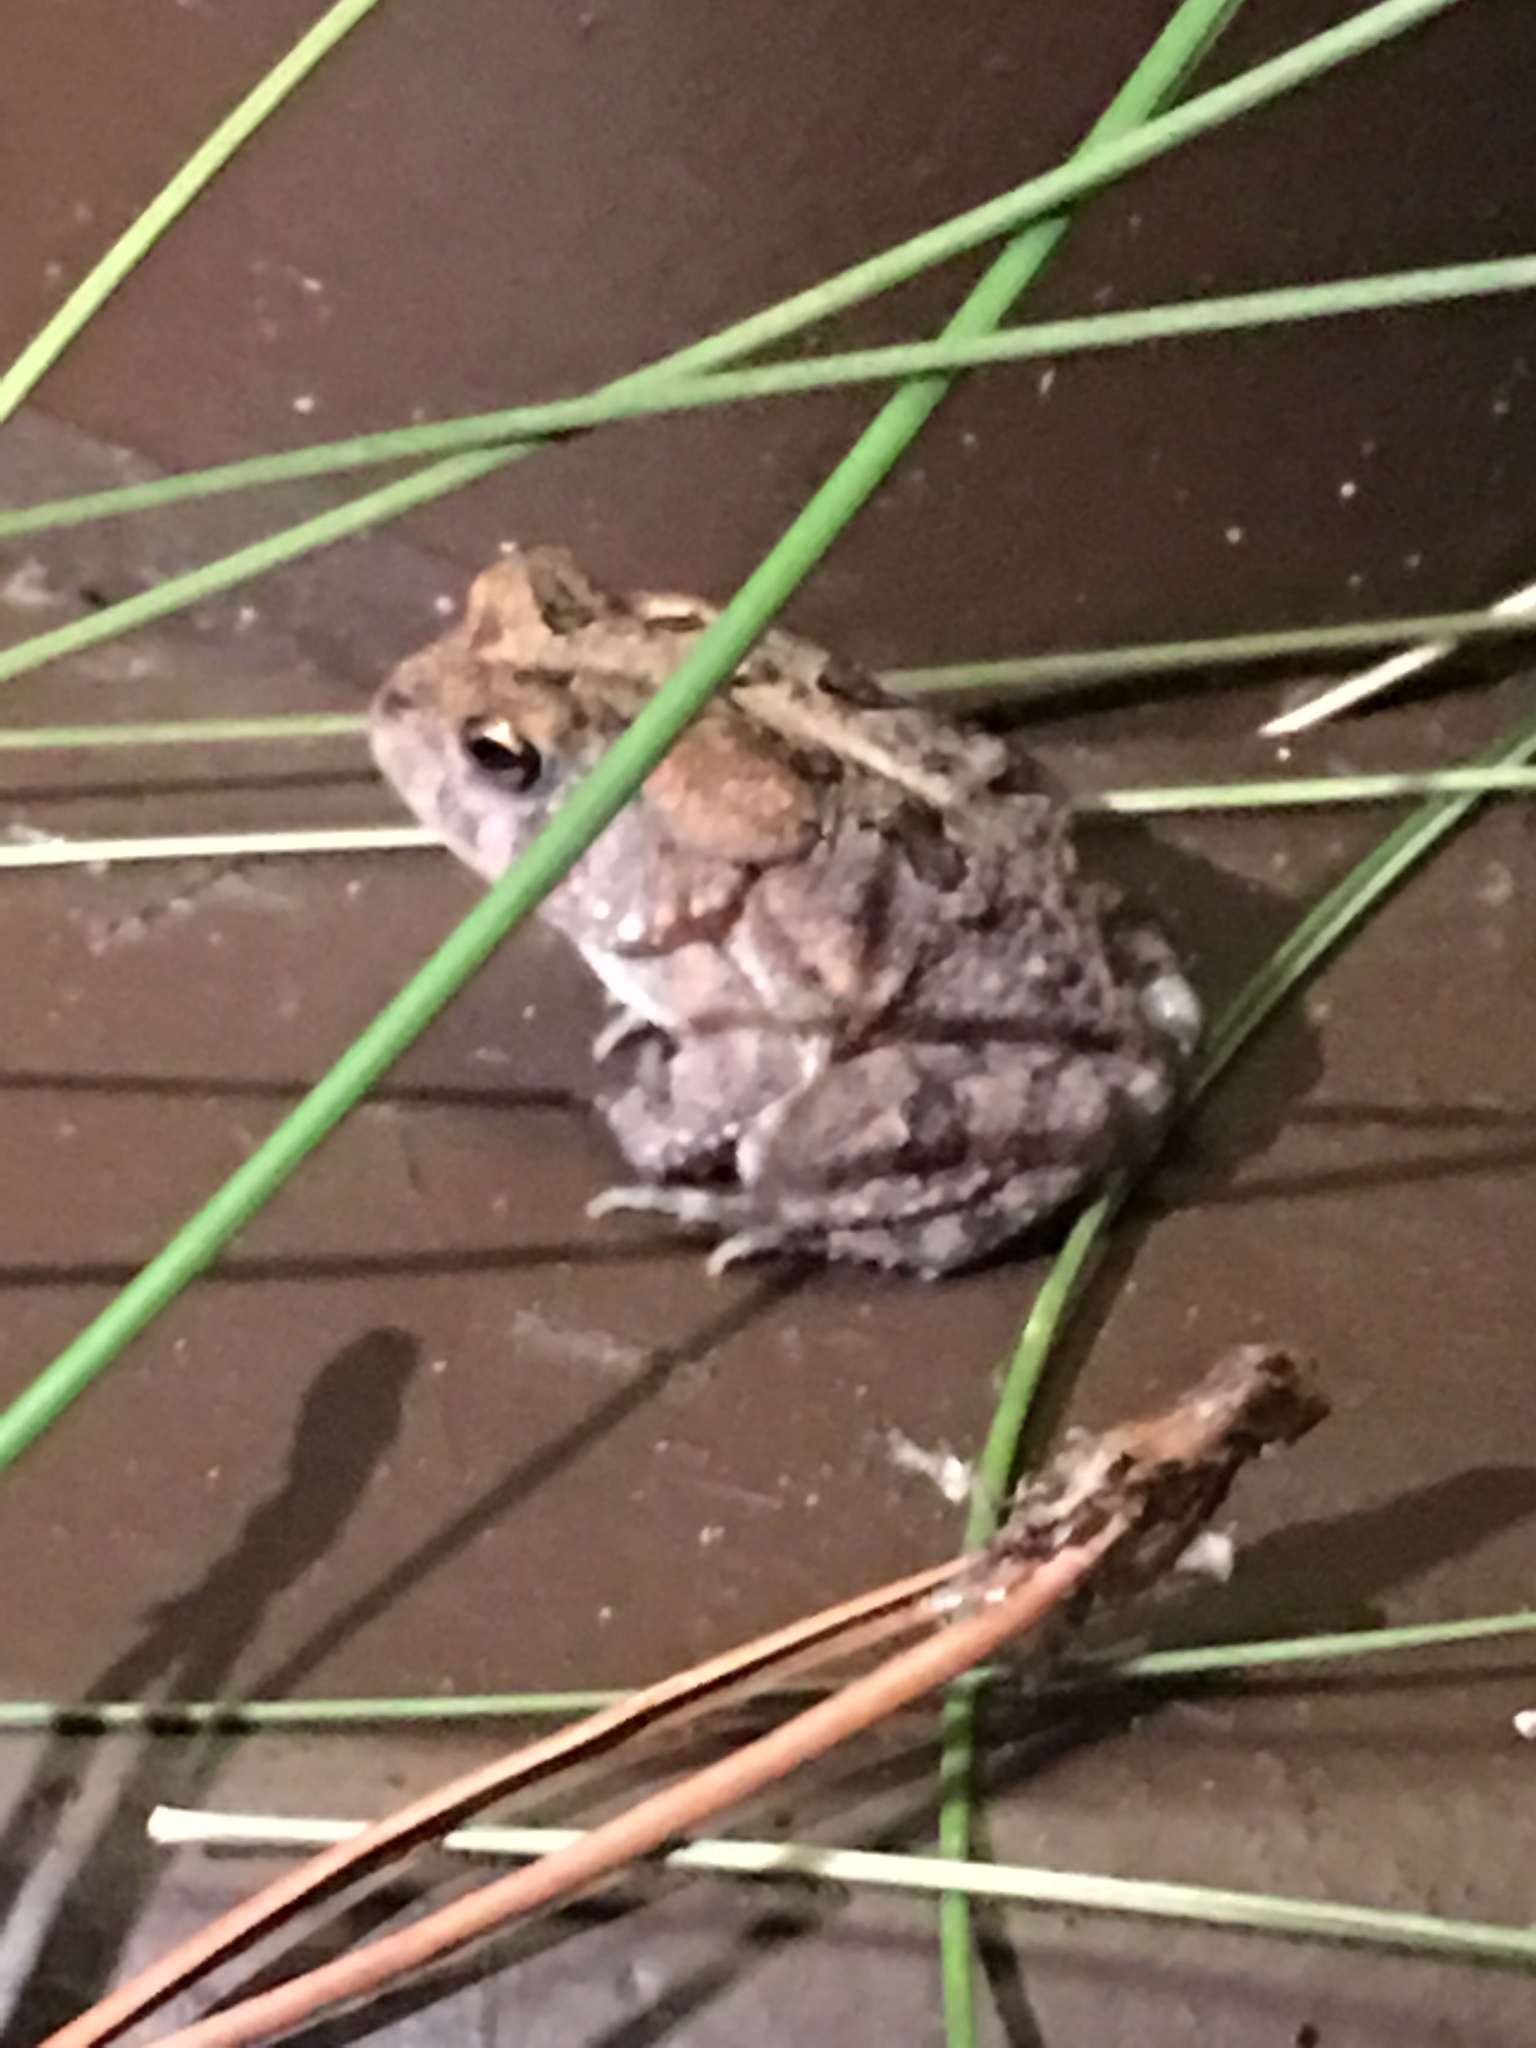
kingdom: Animalia
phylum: Chordata
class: Amphibia
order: Anura
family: Bufonidae
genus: Anaxyrus
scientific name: Anaxyrus terrestris
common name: Southern toad
